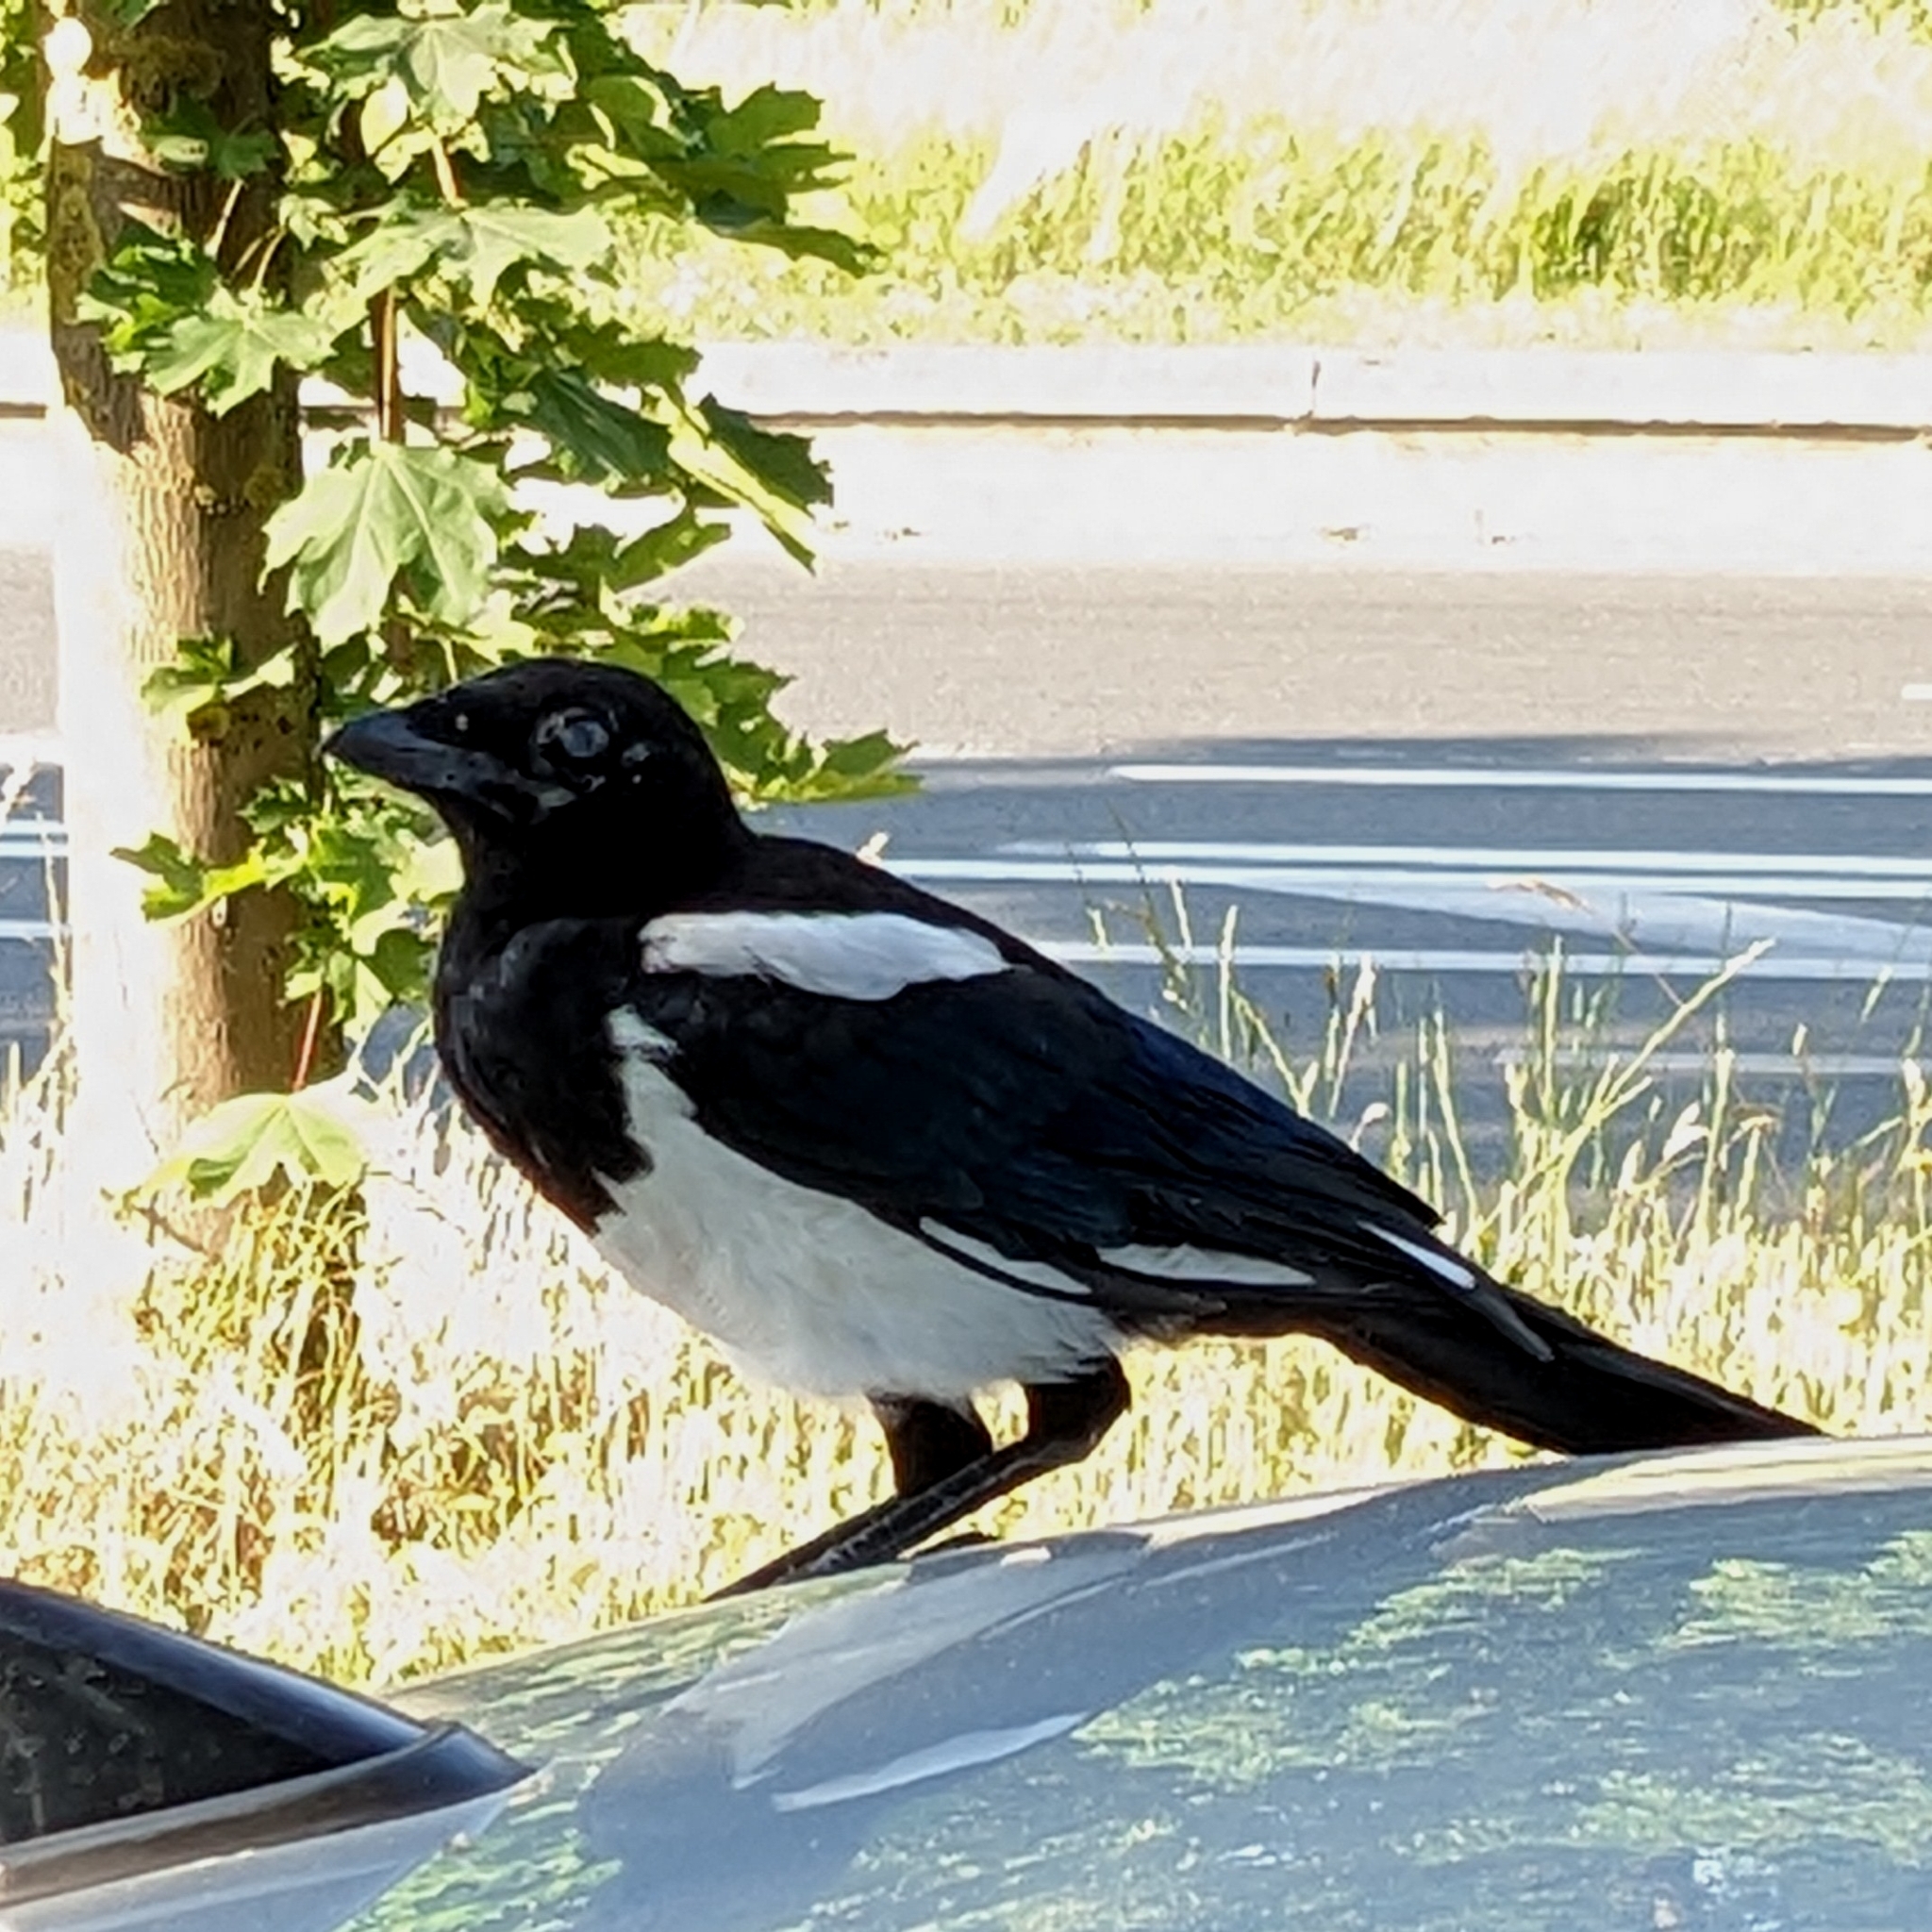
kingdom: Animalia
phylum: Chordata
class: Aves
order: Passeriformes
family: Corvidae
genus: Pica
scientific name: Pica pica
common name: Eurasian magpie
